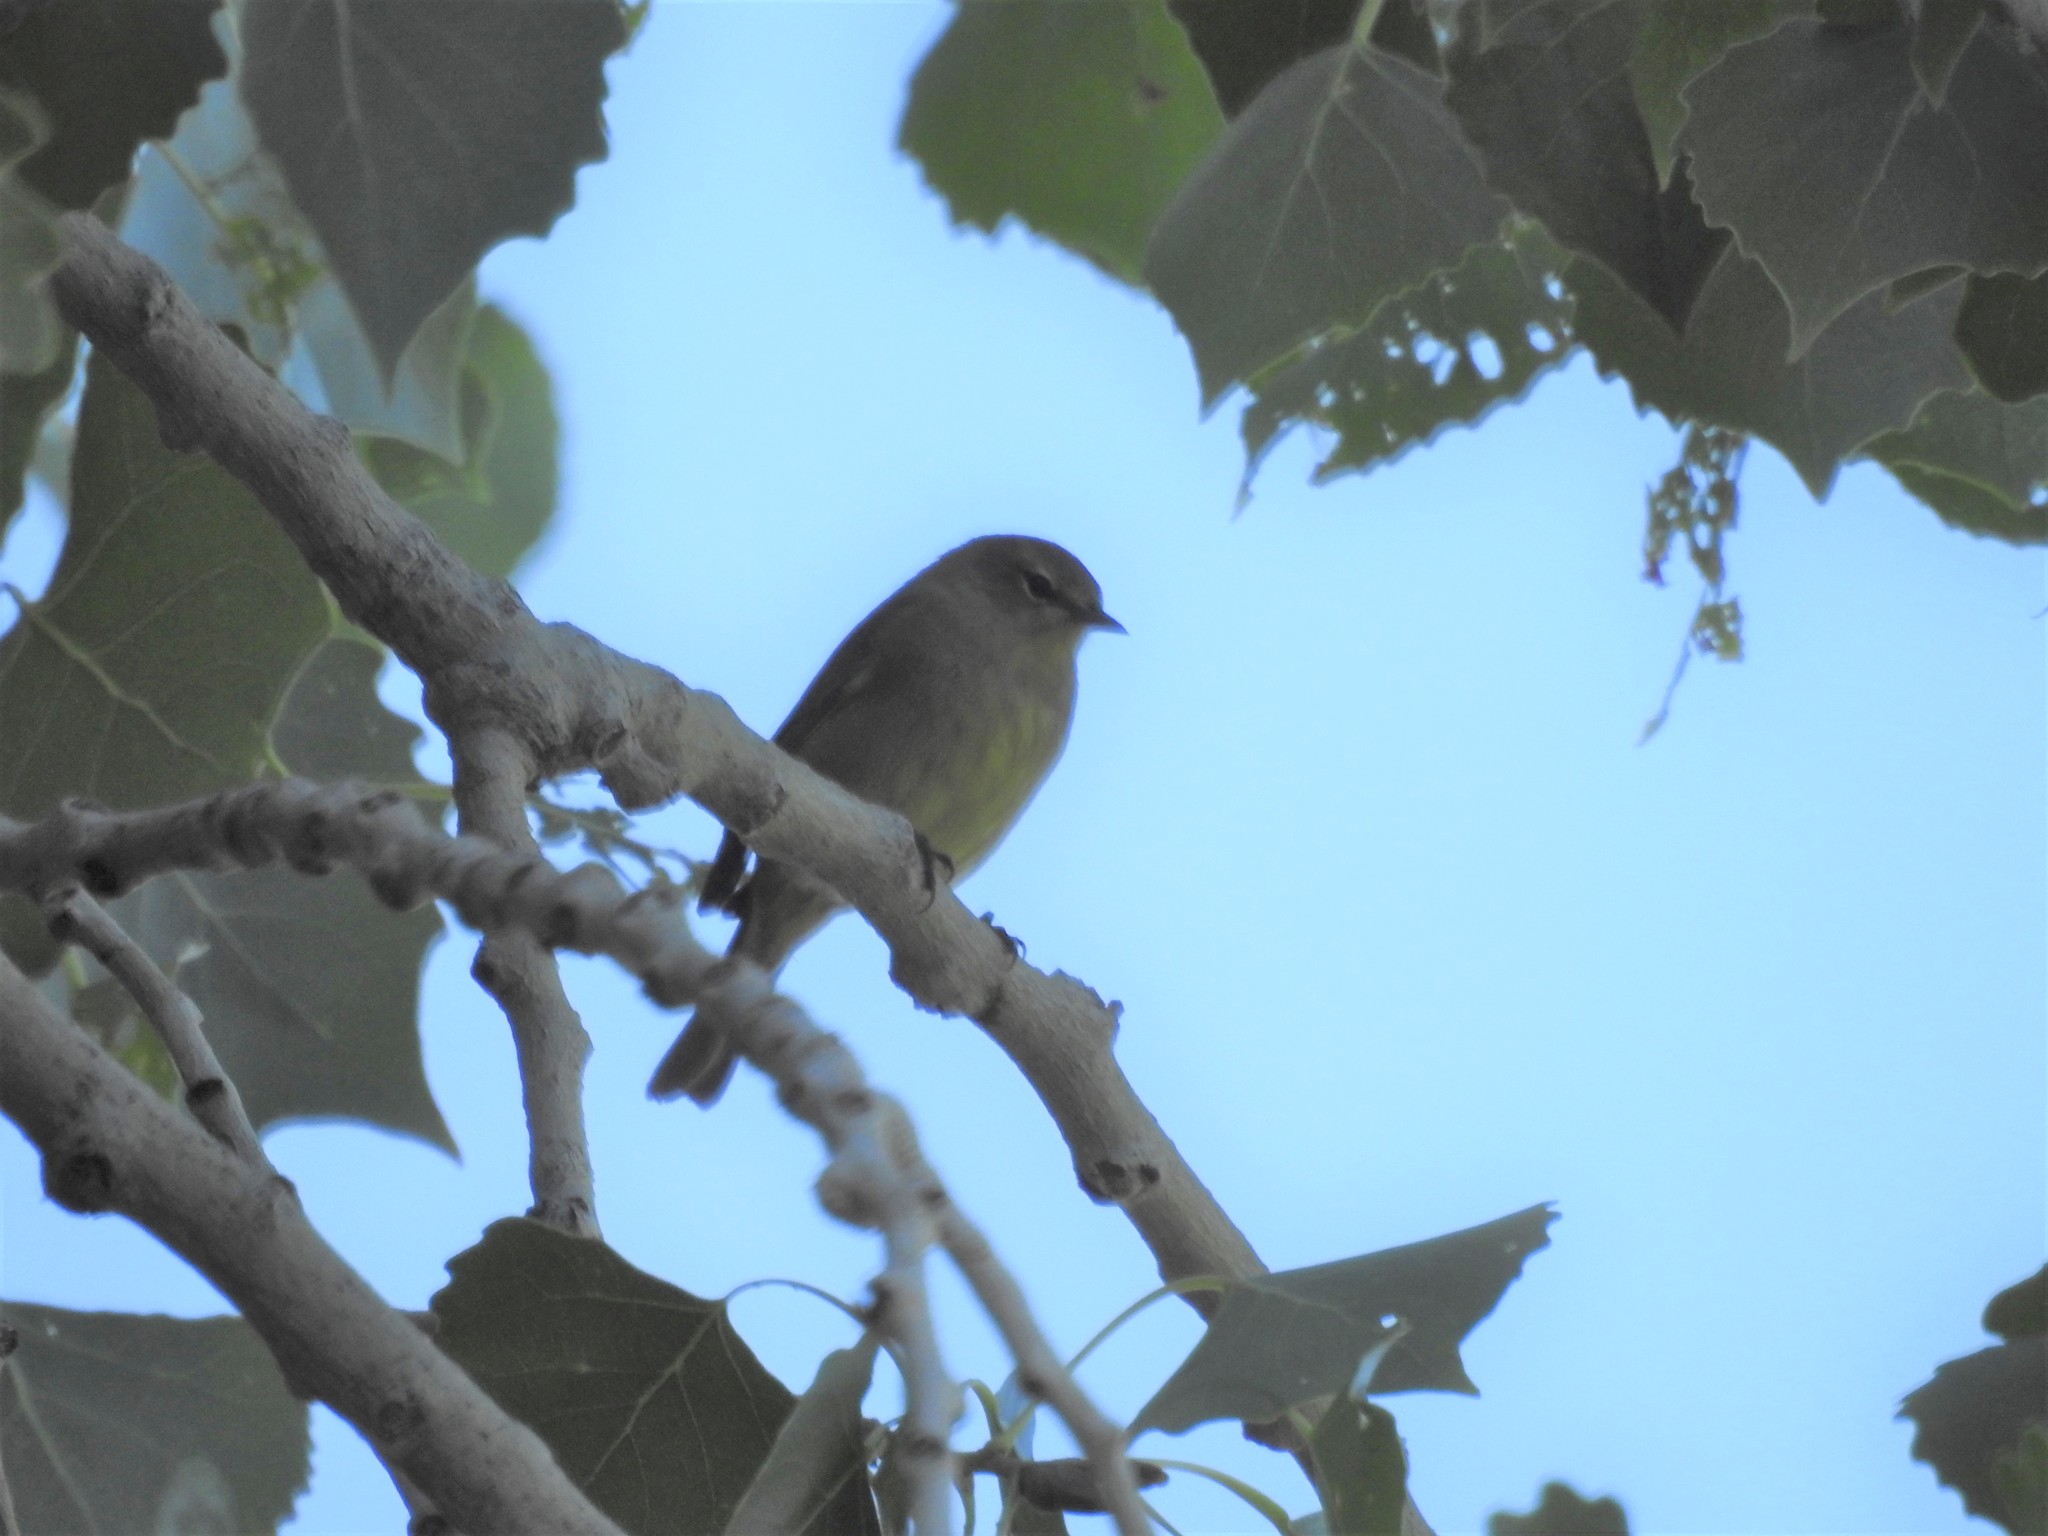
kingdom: Animalia
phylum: Chordata
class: Aves
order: Passeriformes
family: Parulidae
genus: Leiothlypis
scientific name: Leiothlypis celata
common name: Orange-crowned warbler
